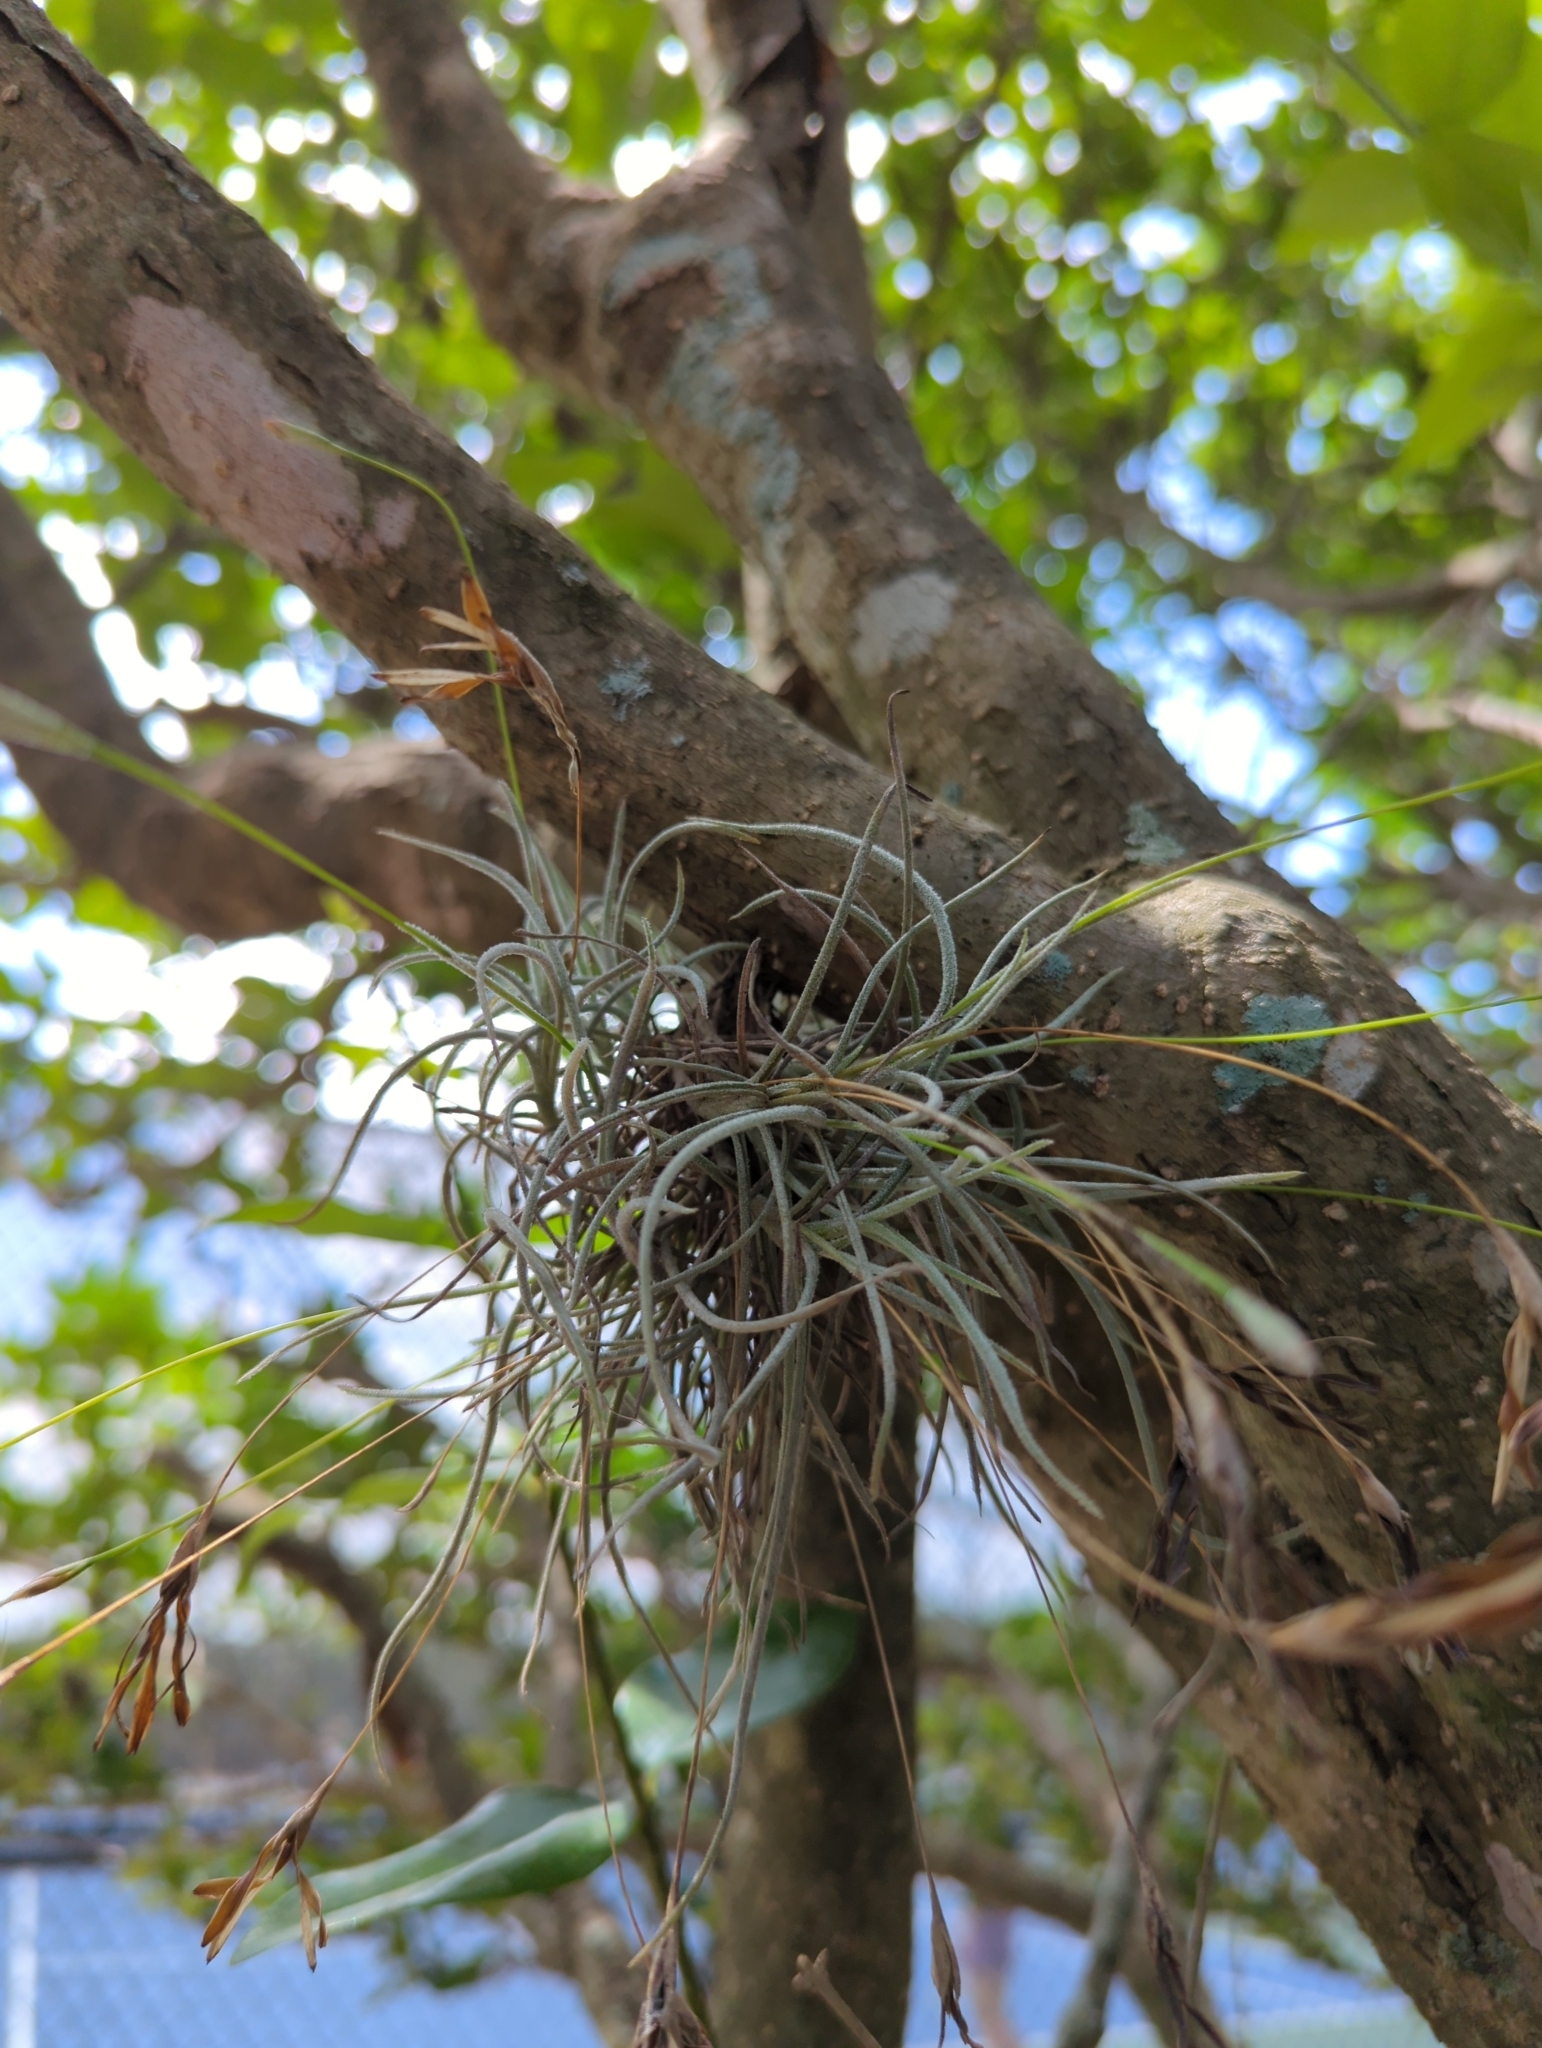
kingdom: Plantae
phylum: Tracheophyta
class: Liliopsida
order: Poales
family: Bromeliaceae
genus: Tillandsia
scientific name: Tillandsia recurvata
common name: Small ballmoss
